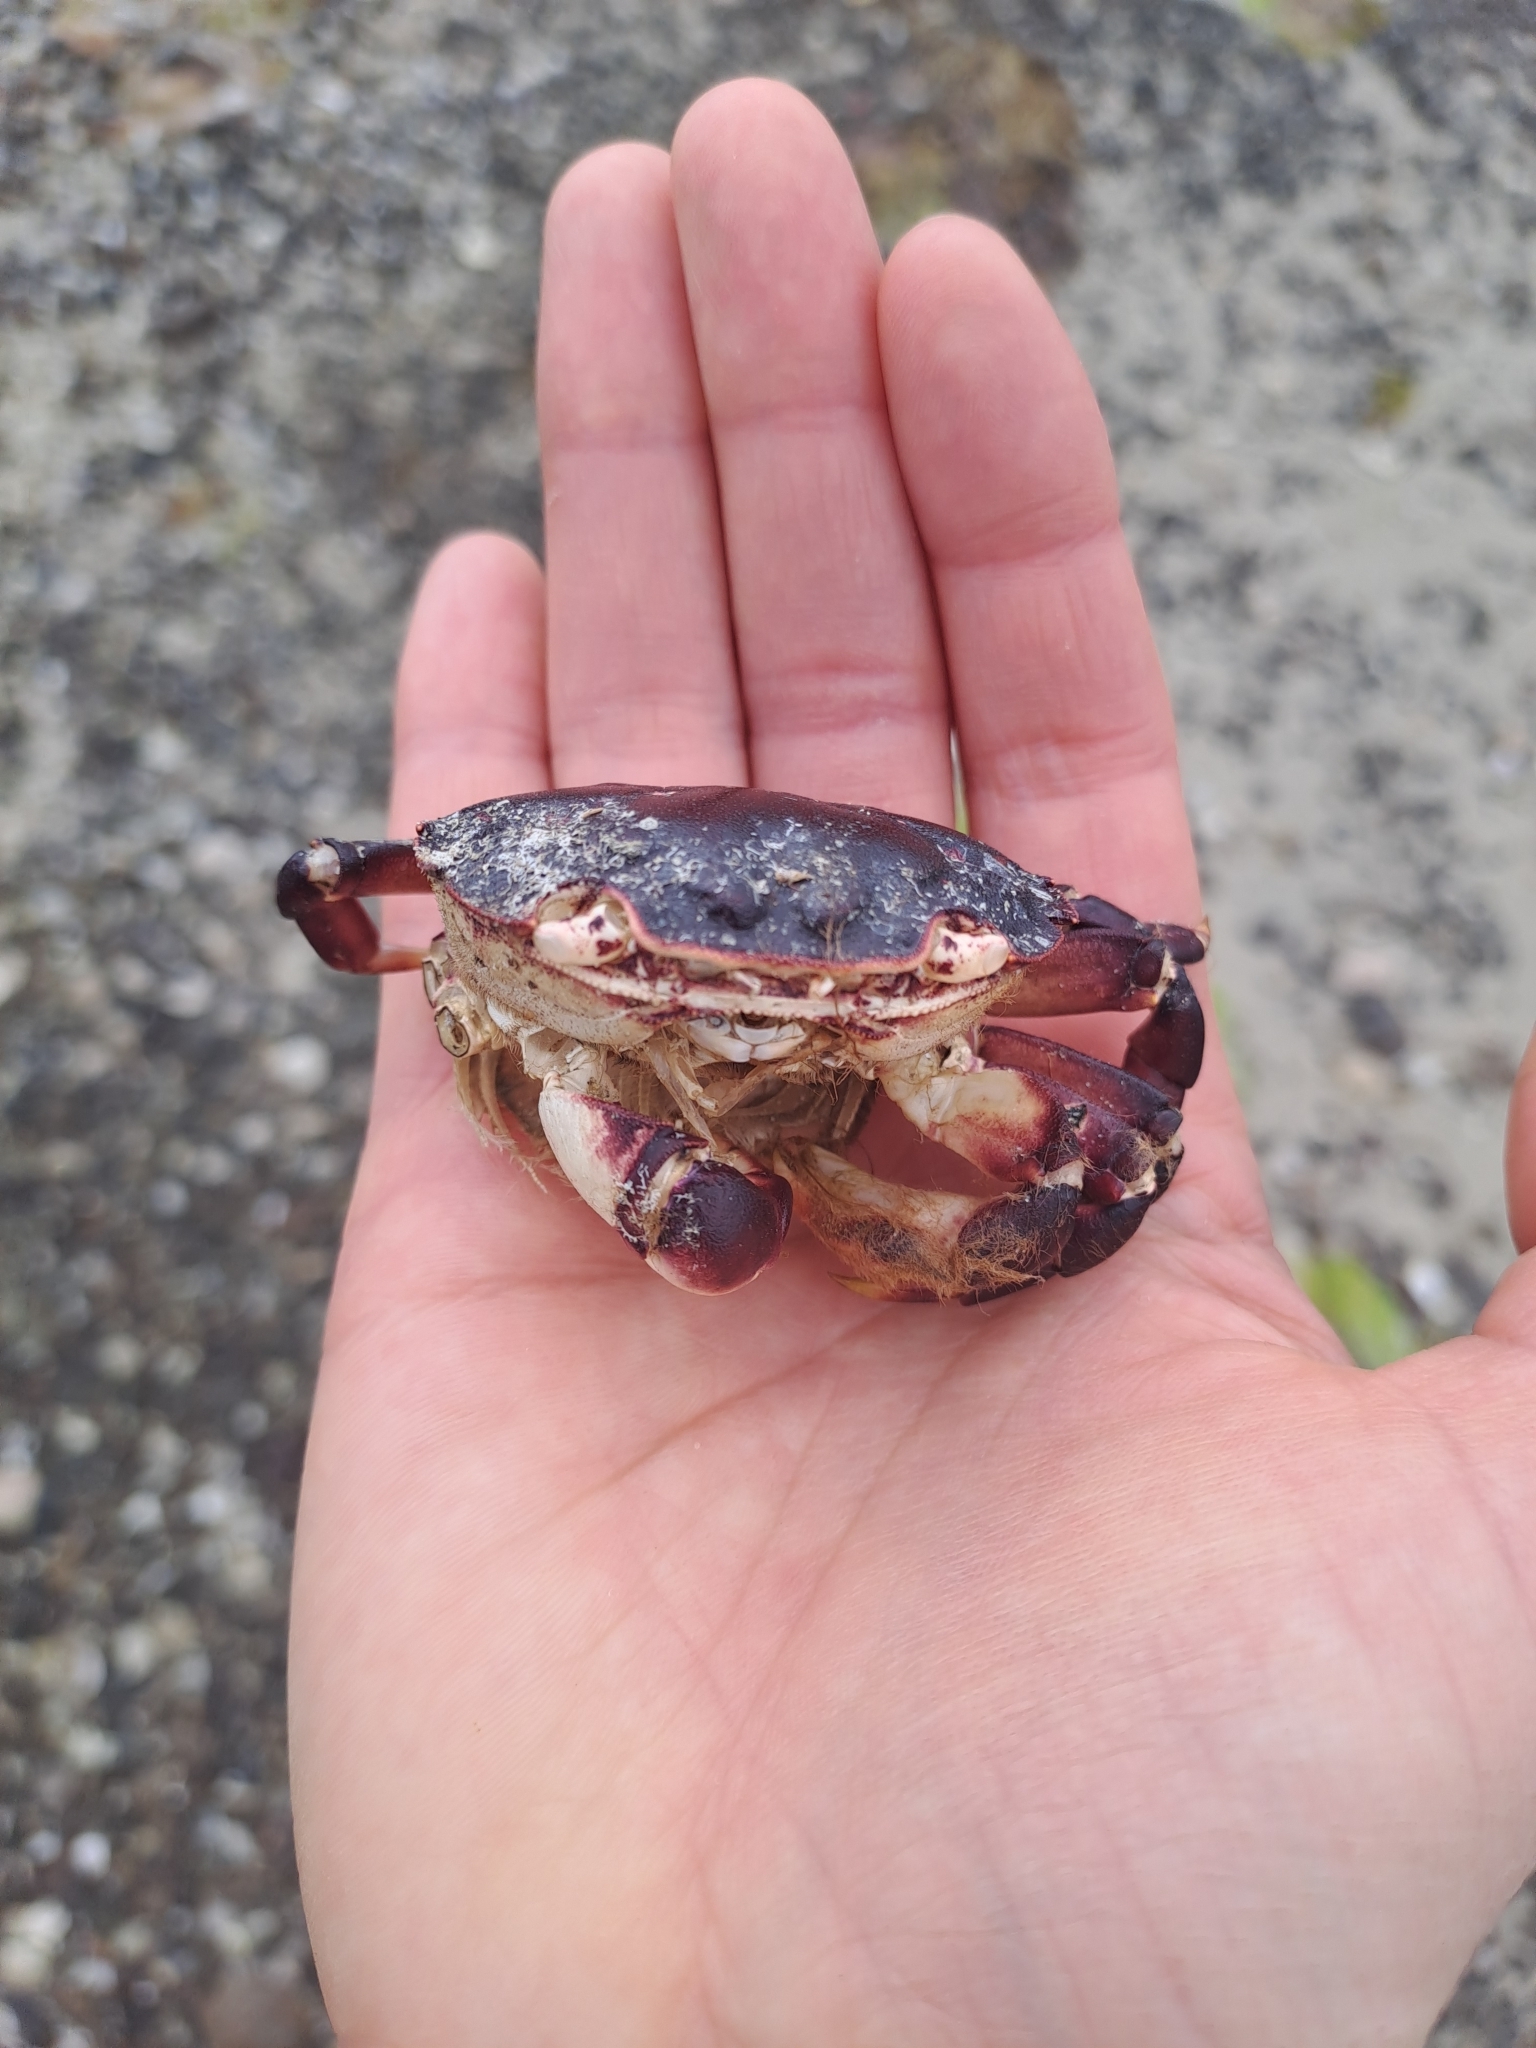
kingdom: Animalia
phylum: Arthropoda
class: Malacostraca
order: Decapoda
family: Varunidae
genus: Hemigrapsus
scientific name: Hemigrapsus sexdentatus
